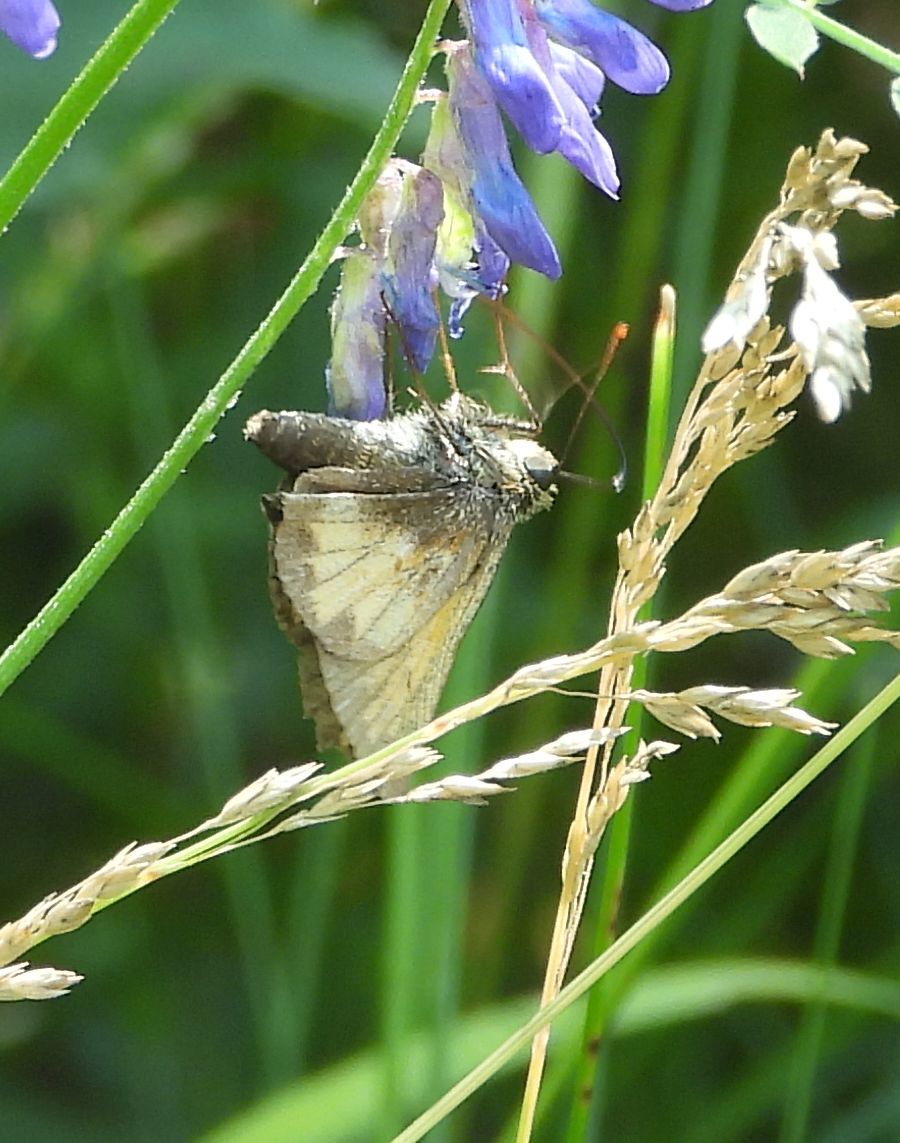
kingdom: Animalia
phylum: Arthropoda
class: Insecta
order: Lepidoptera
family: Hesperiidae
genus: Lon
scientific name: Lon hobomok
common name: Hobomok skipper
